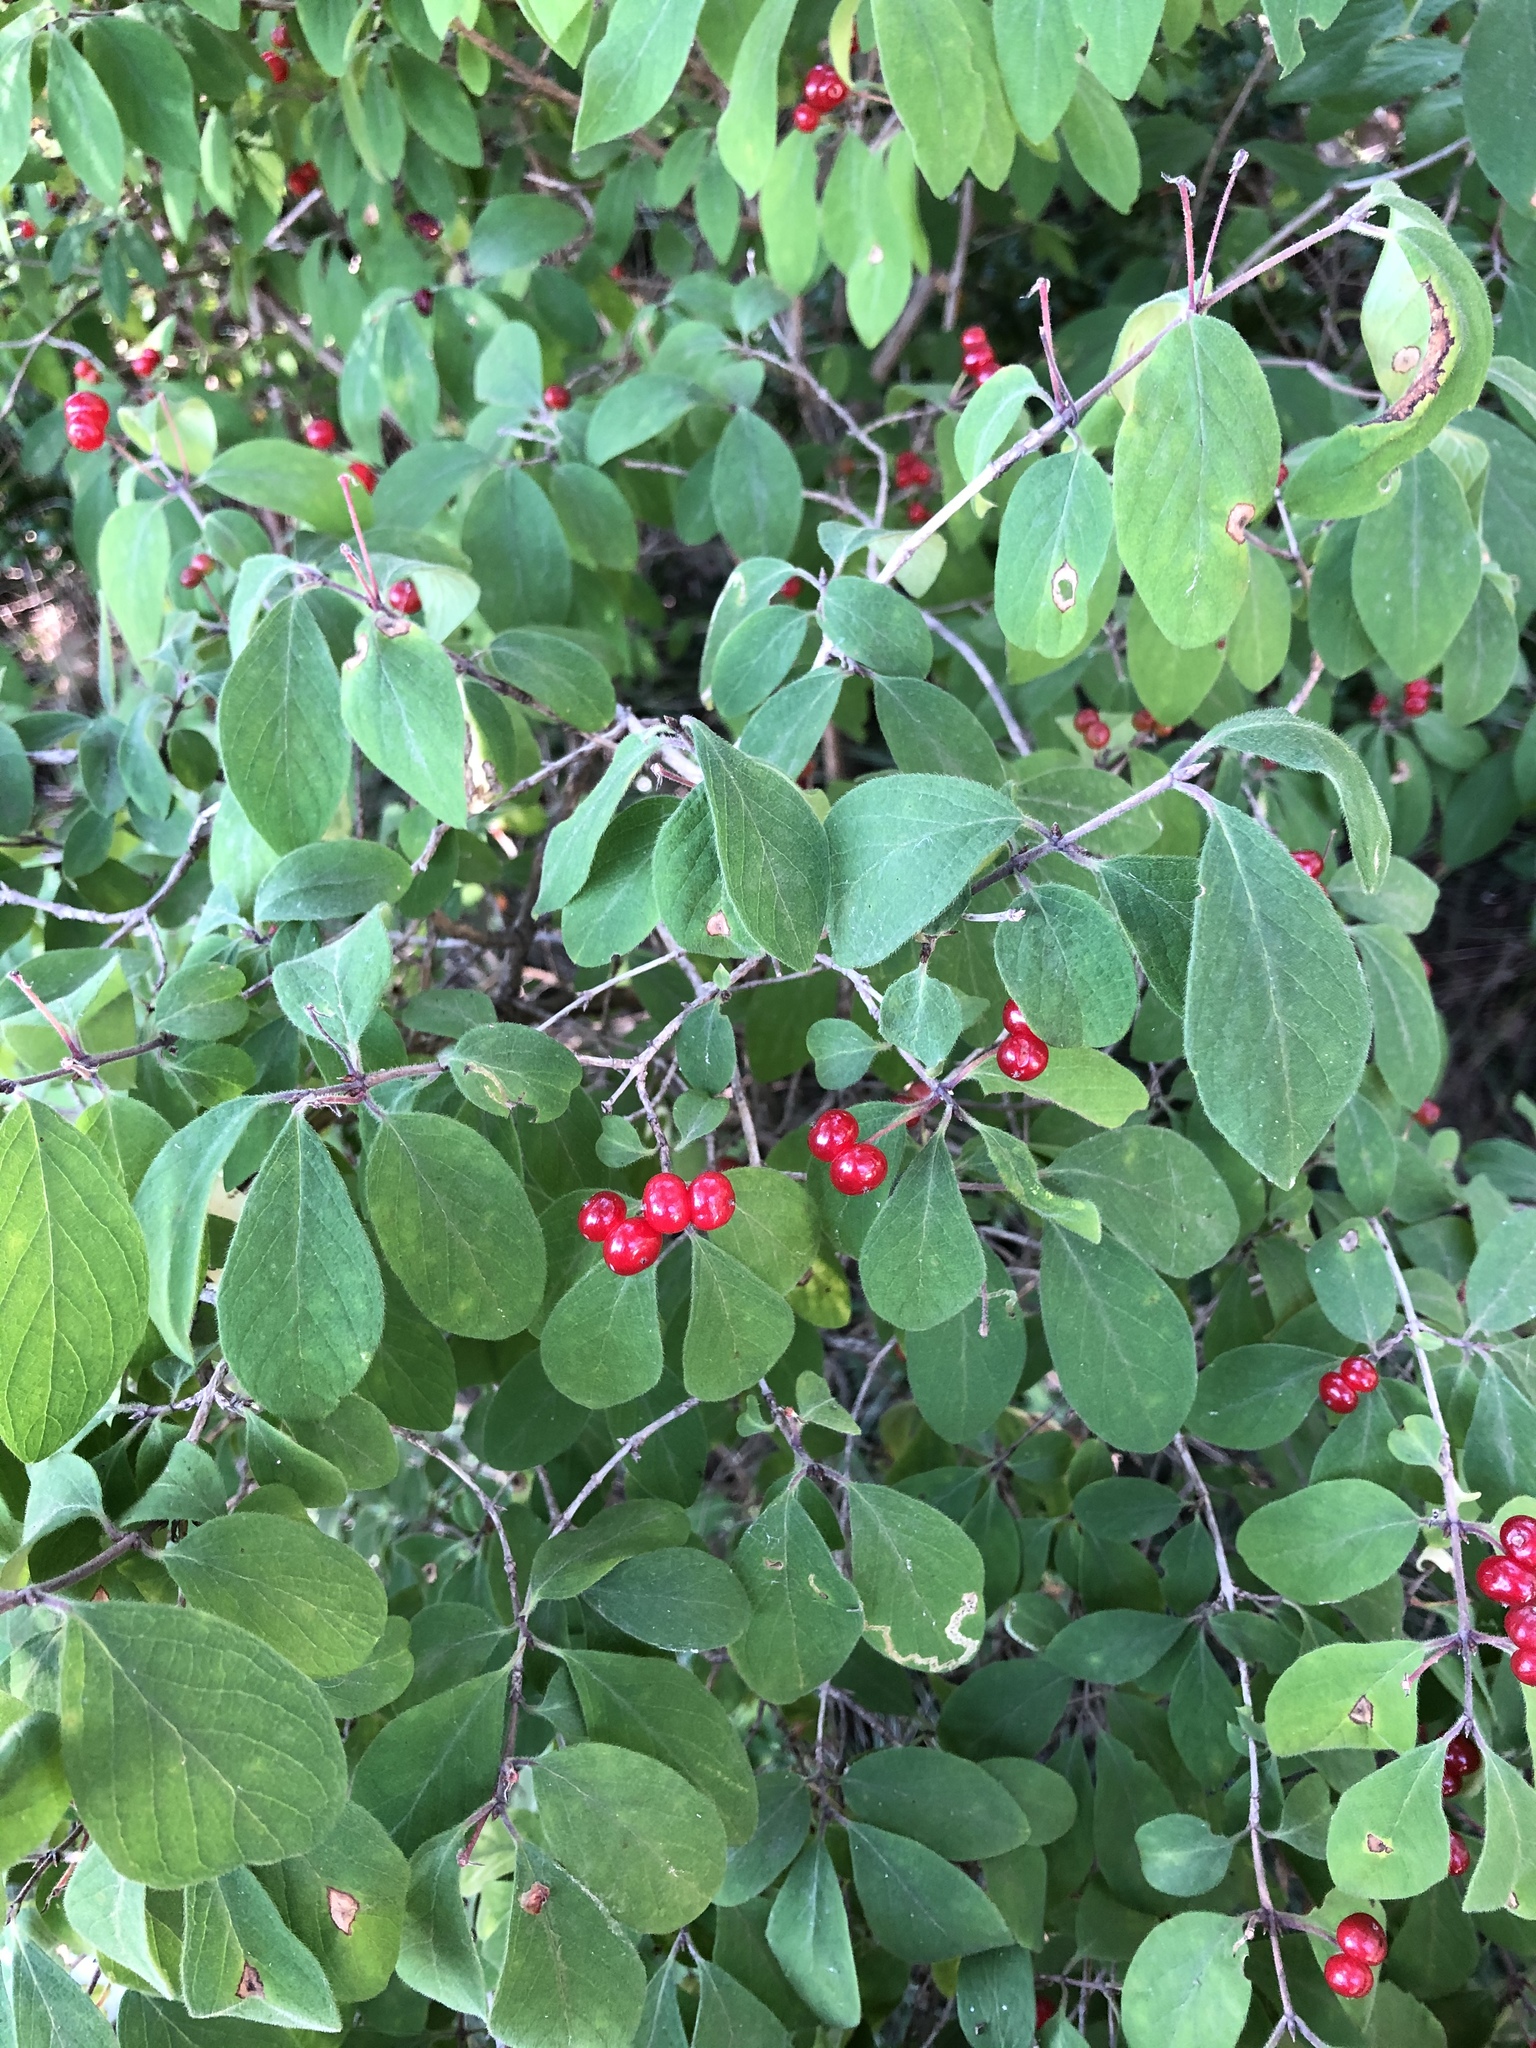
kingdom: Plantae
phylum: Tracheophyta
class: Magnoliopsida
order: Dipsacales
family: Caprifoliaceae
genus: Lonicera
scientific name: Lonicera xylosteum
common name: Fly honeysuckle
